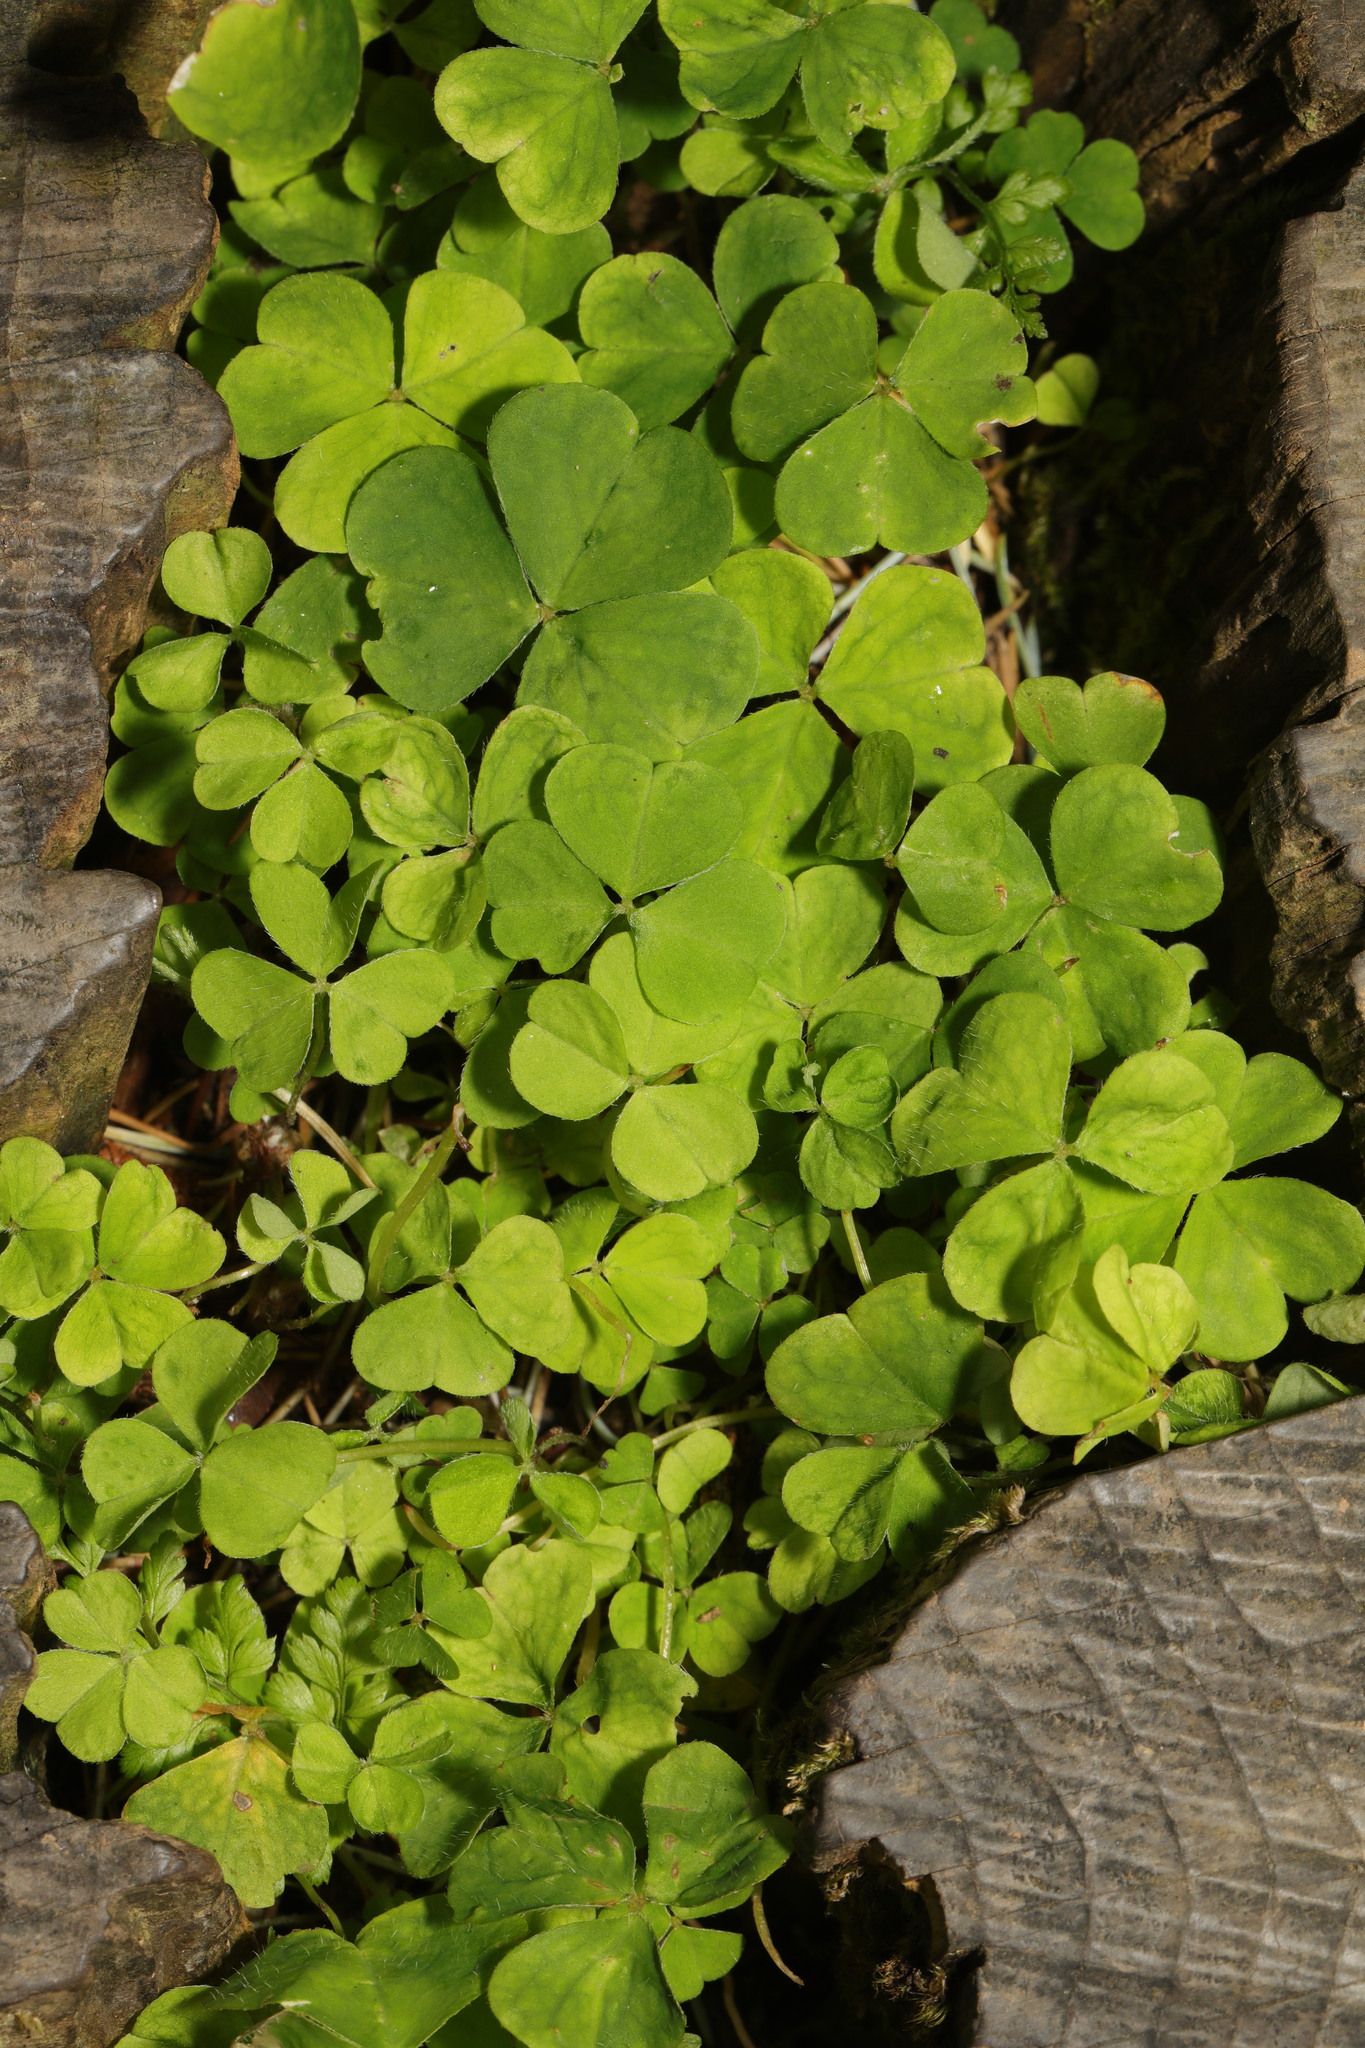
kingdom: Plantae
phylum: Tracheophyta
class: Magnoliopsida
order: Oxalidales
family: Oxalidaceae
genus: Oxalis
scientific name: Oxalis acetosella
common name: Wood-sorrel
